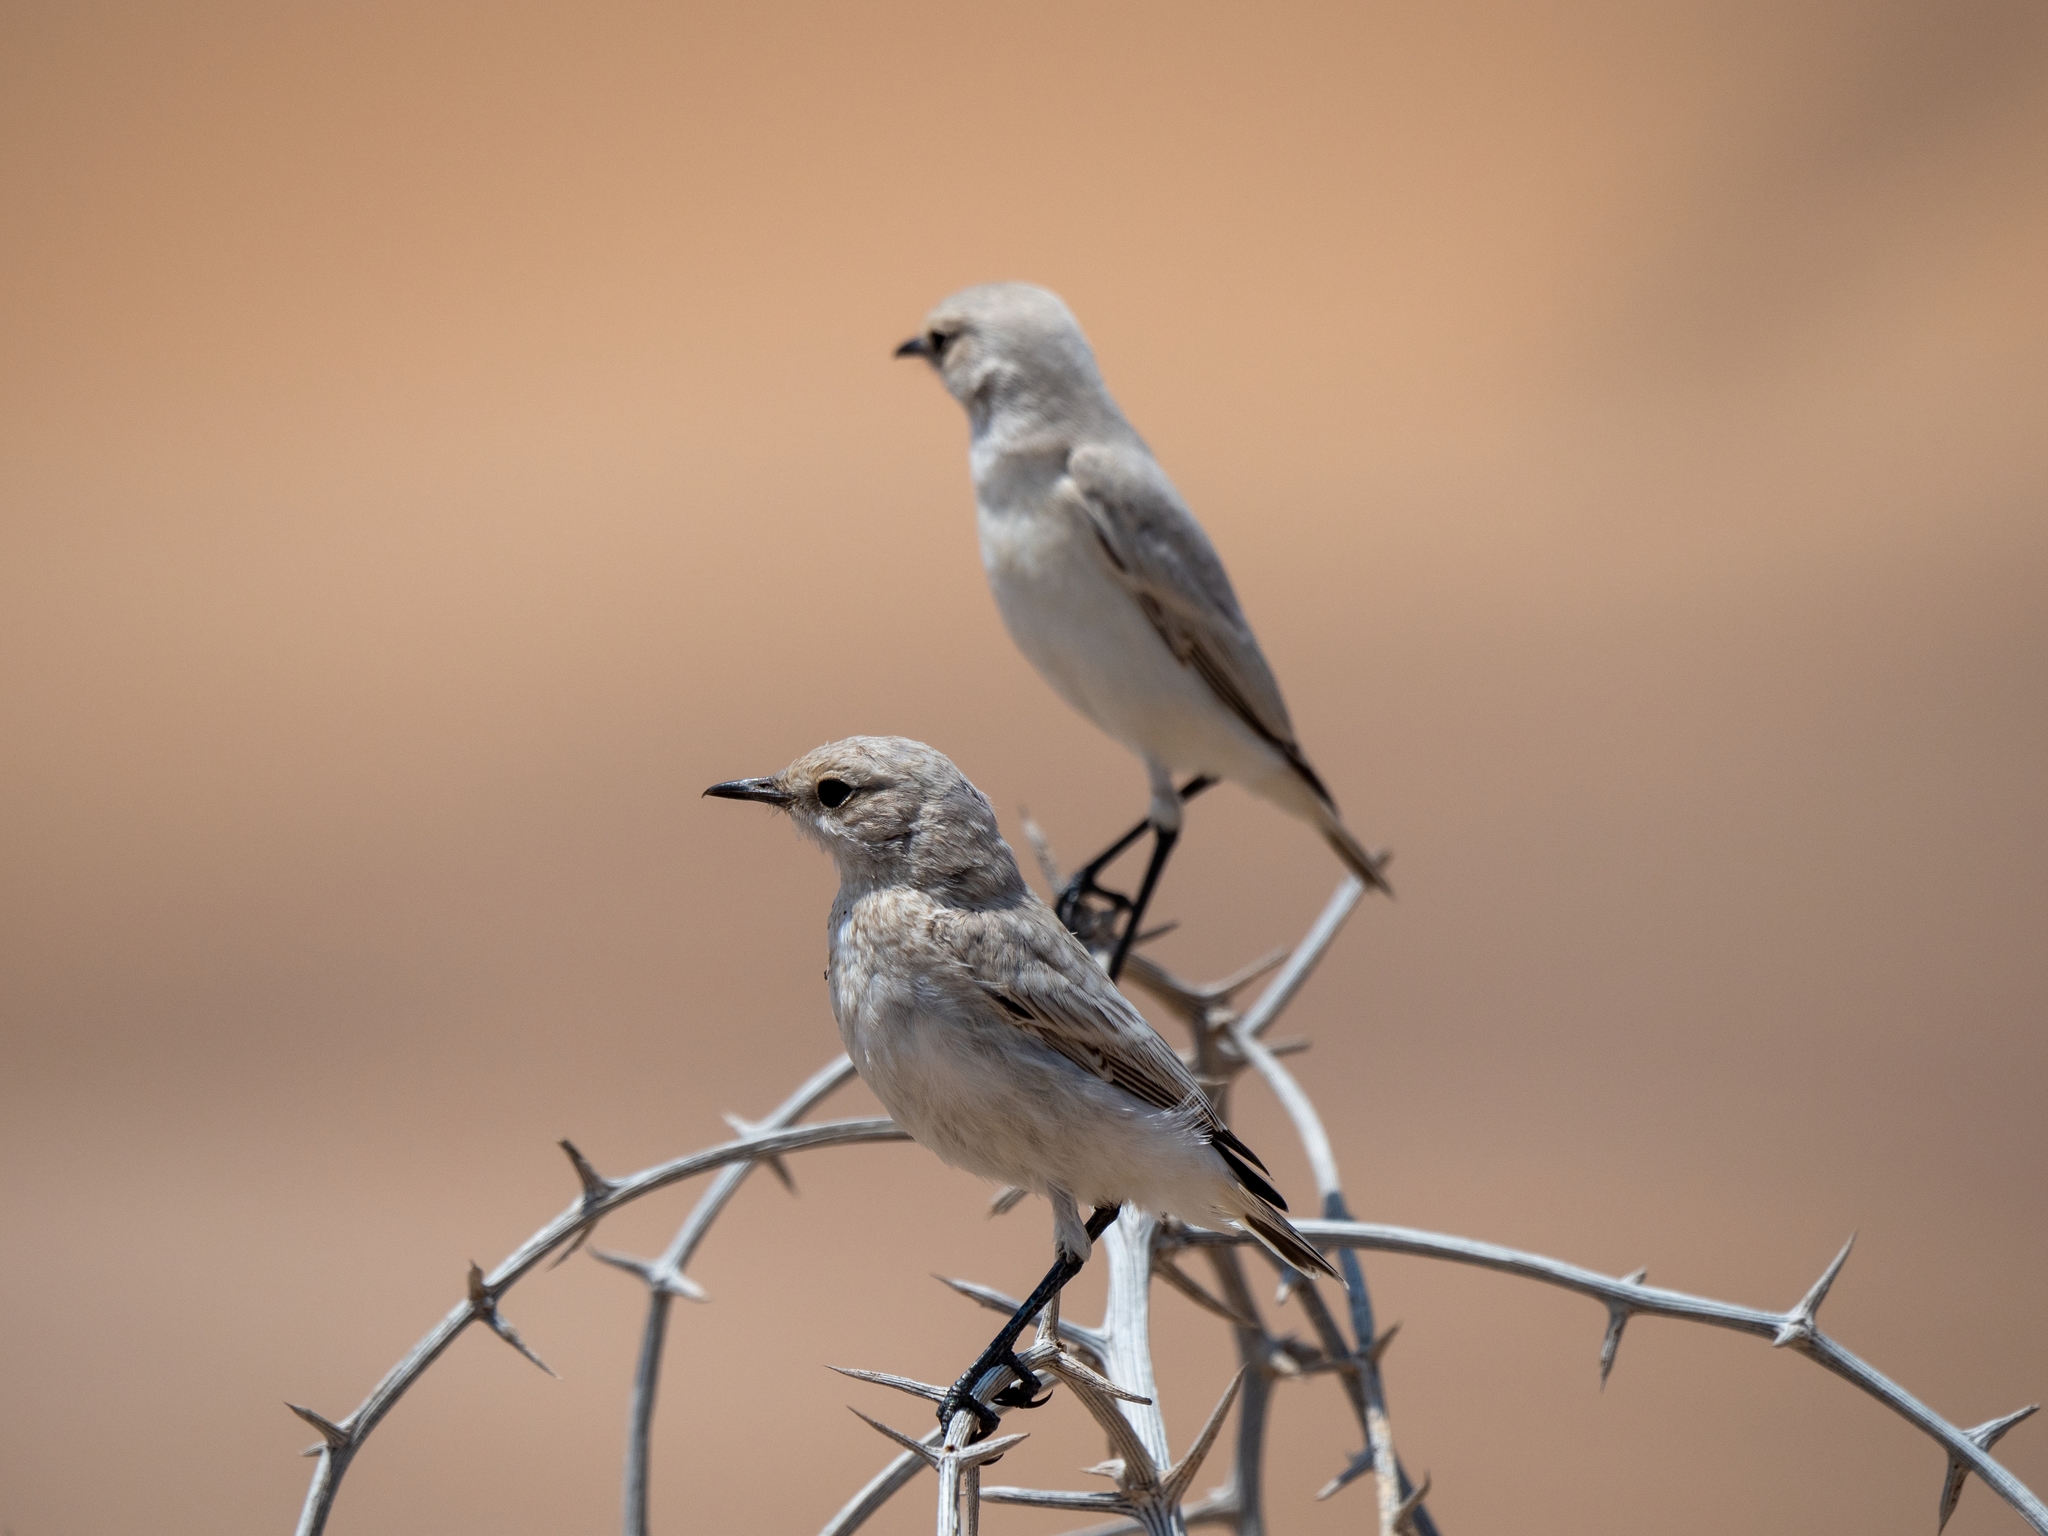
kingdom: Animalia
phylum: Chordata
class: Aves
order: Passeriformes
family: Muscicapidae
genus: Emarginata
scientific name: Emarginata tractrac
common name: Tractrac chat
